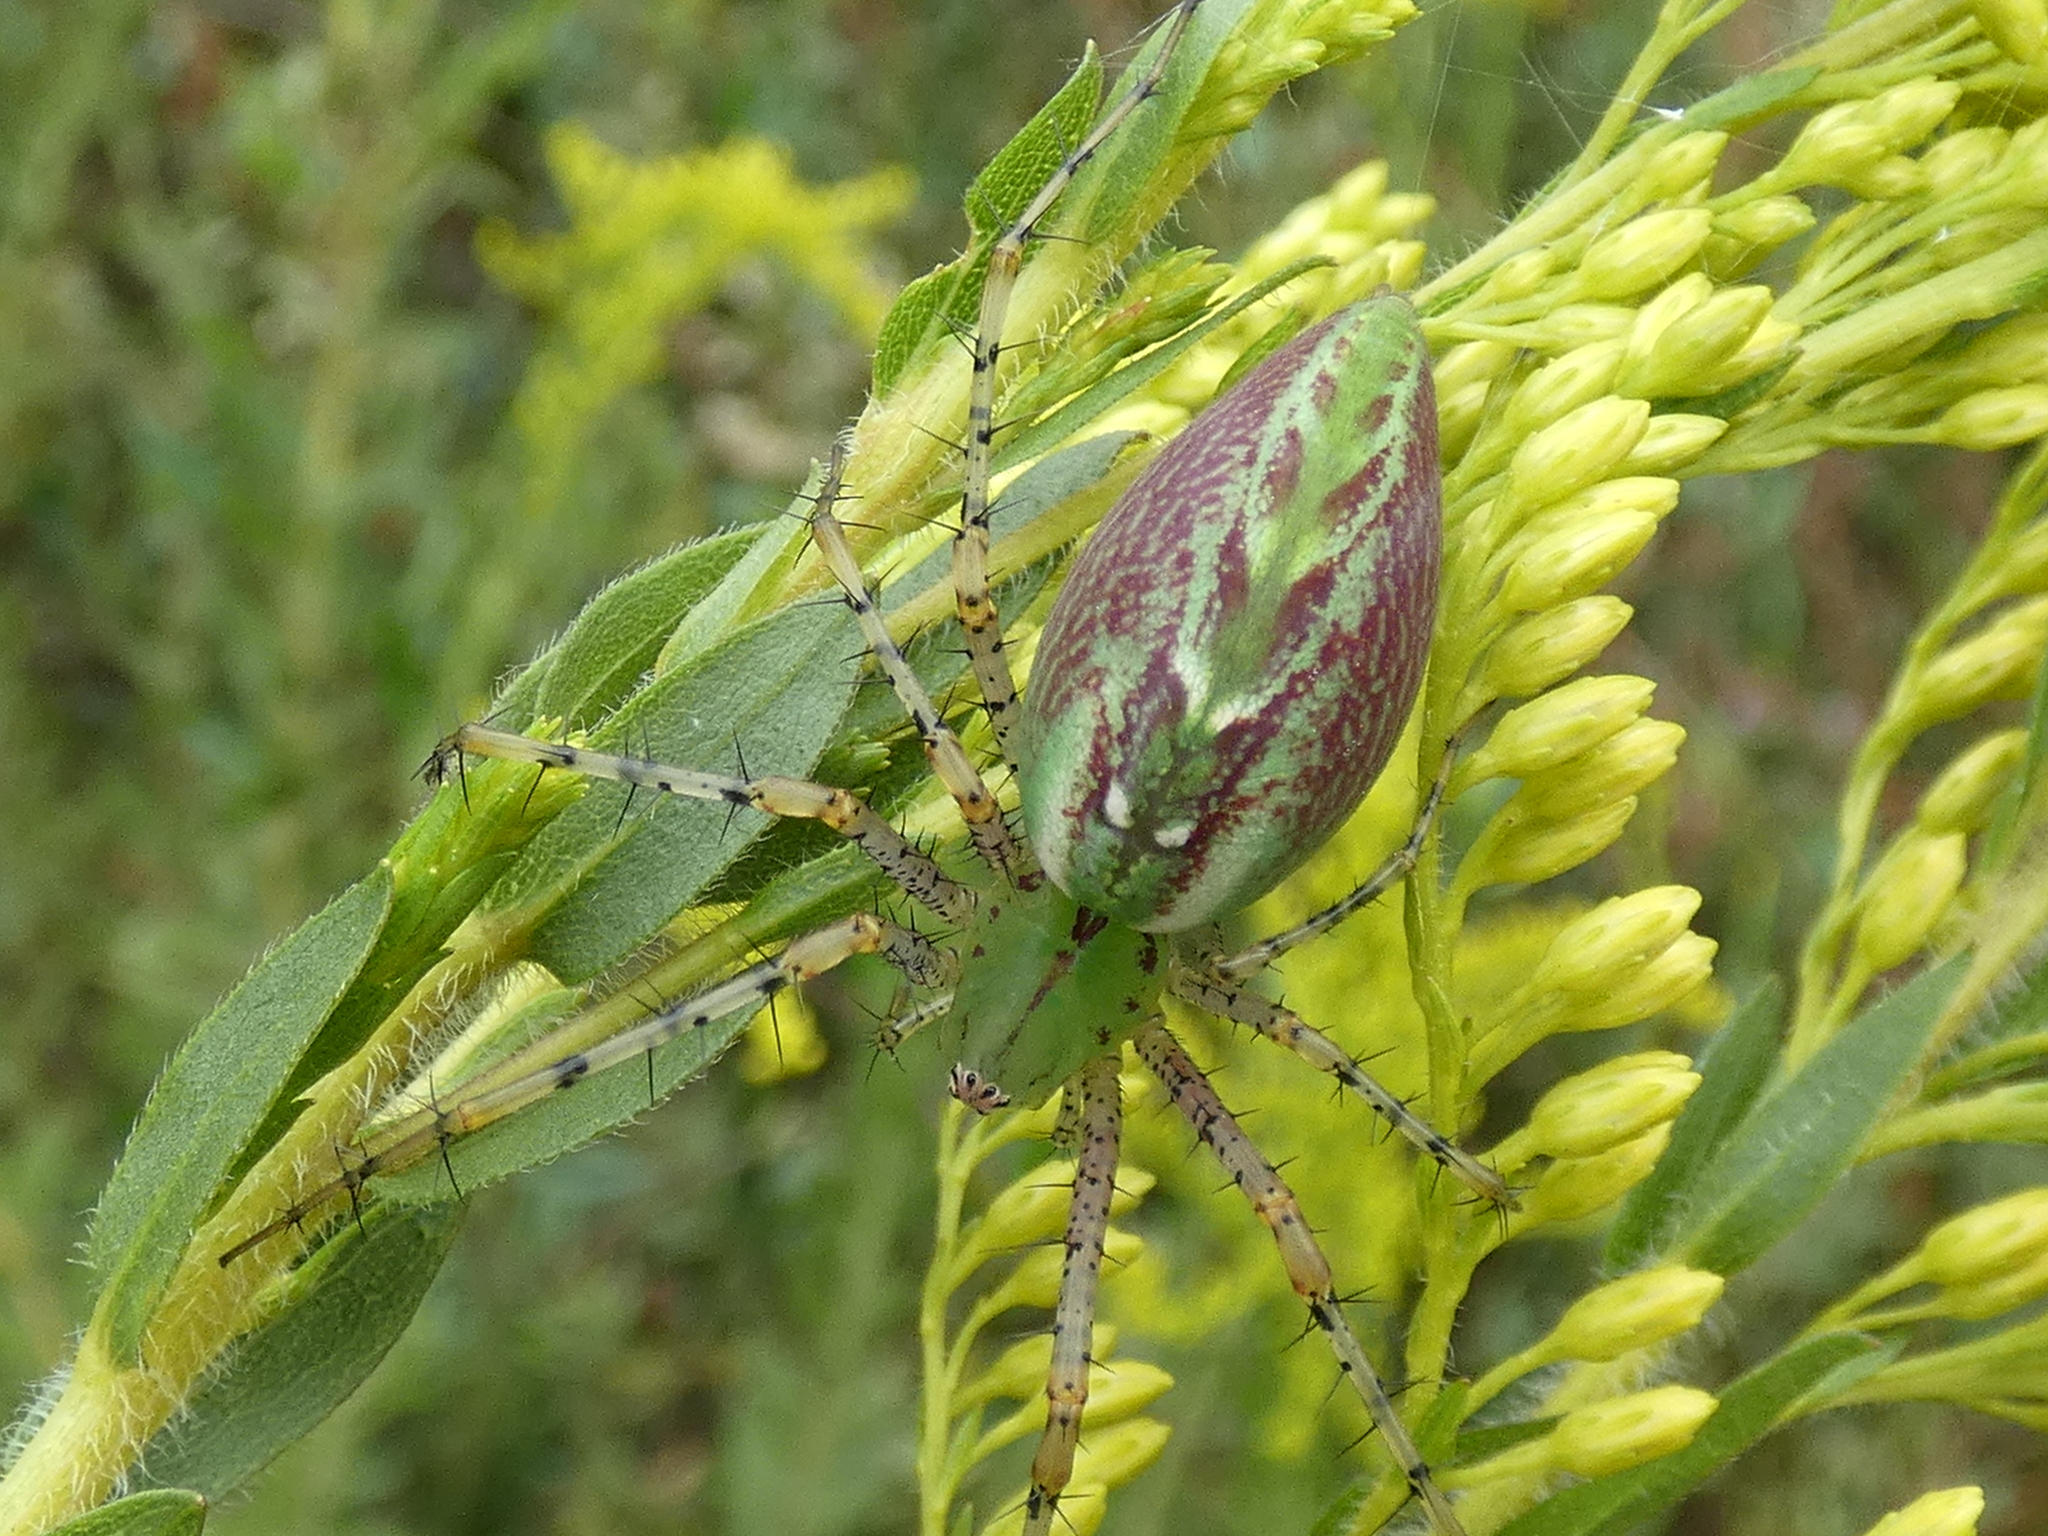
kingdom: Animalia
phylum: Arthropoda
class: Arachnida
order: Araneae
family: Oxyopidae
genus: Peucetia
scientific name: Peucetia viridans
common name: Lynx spiders
